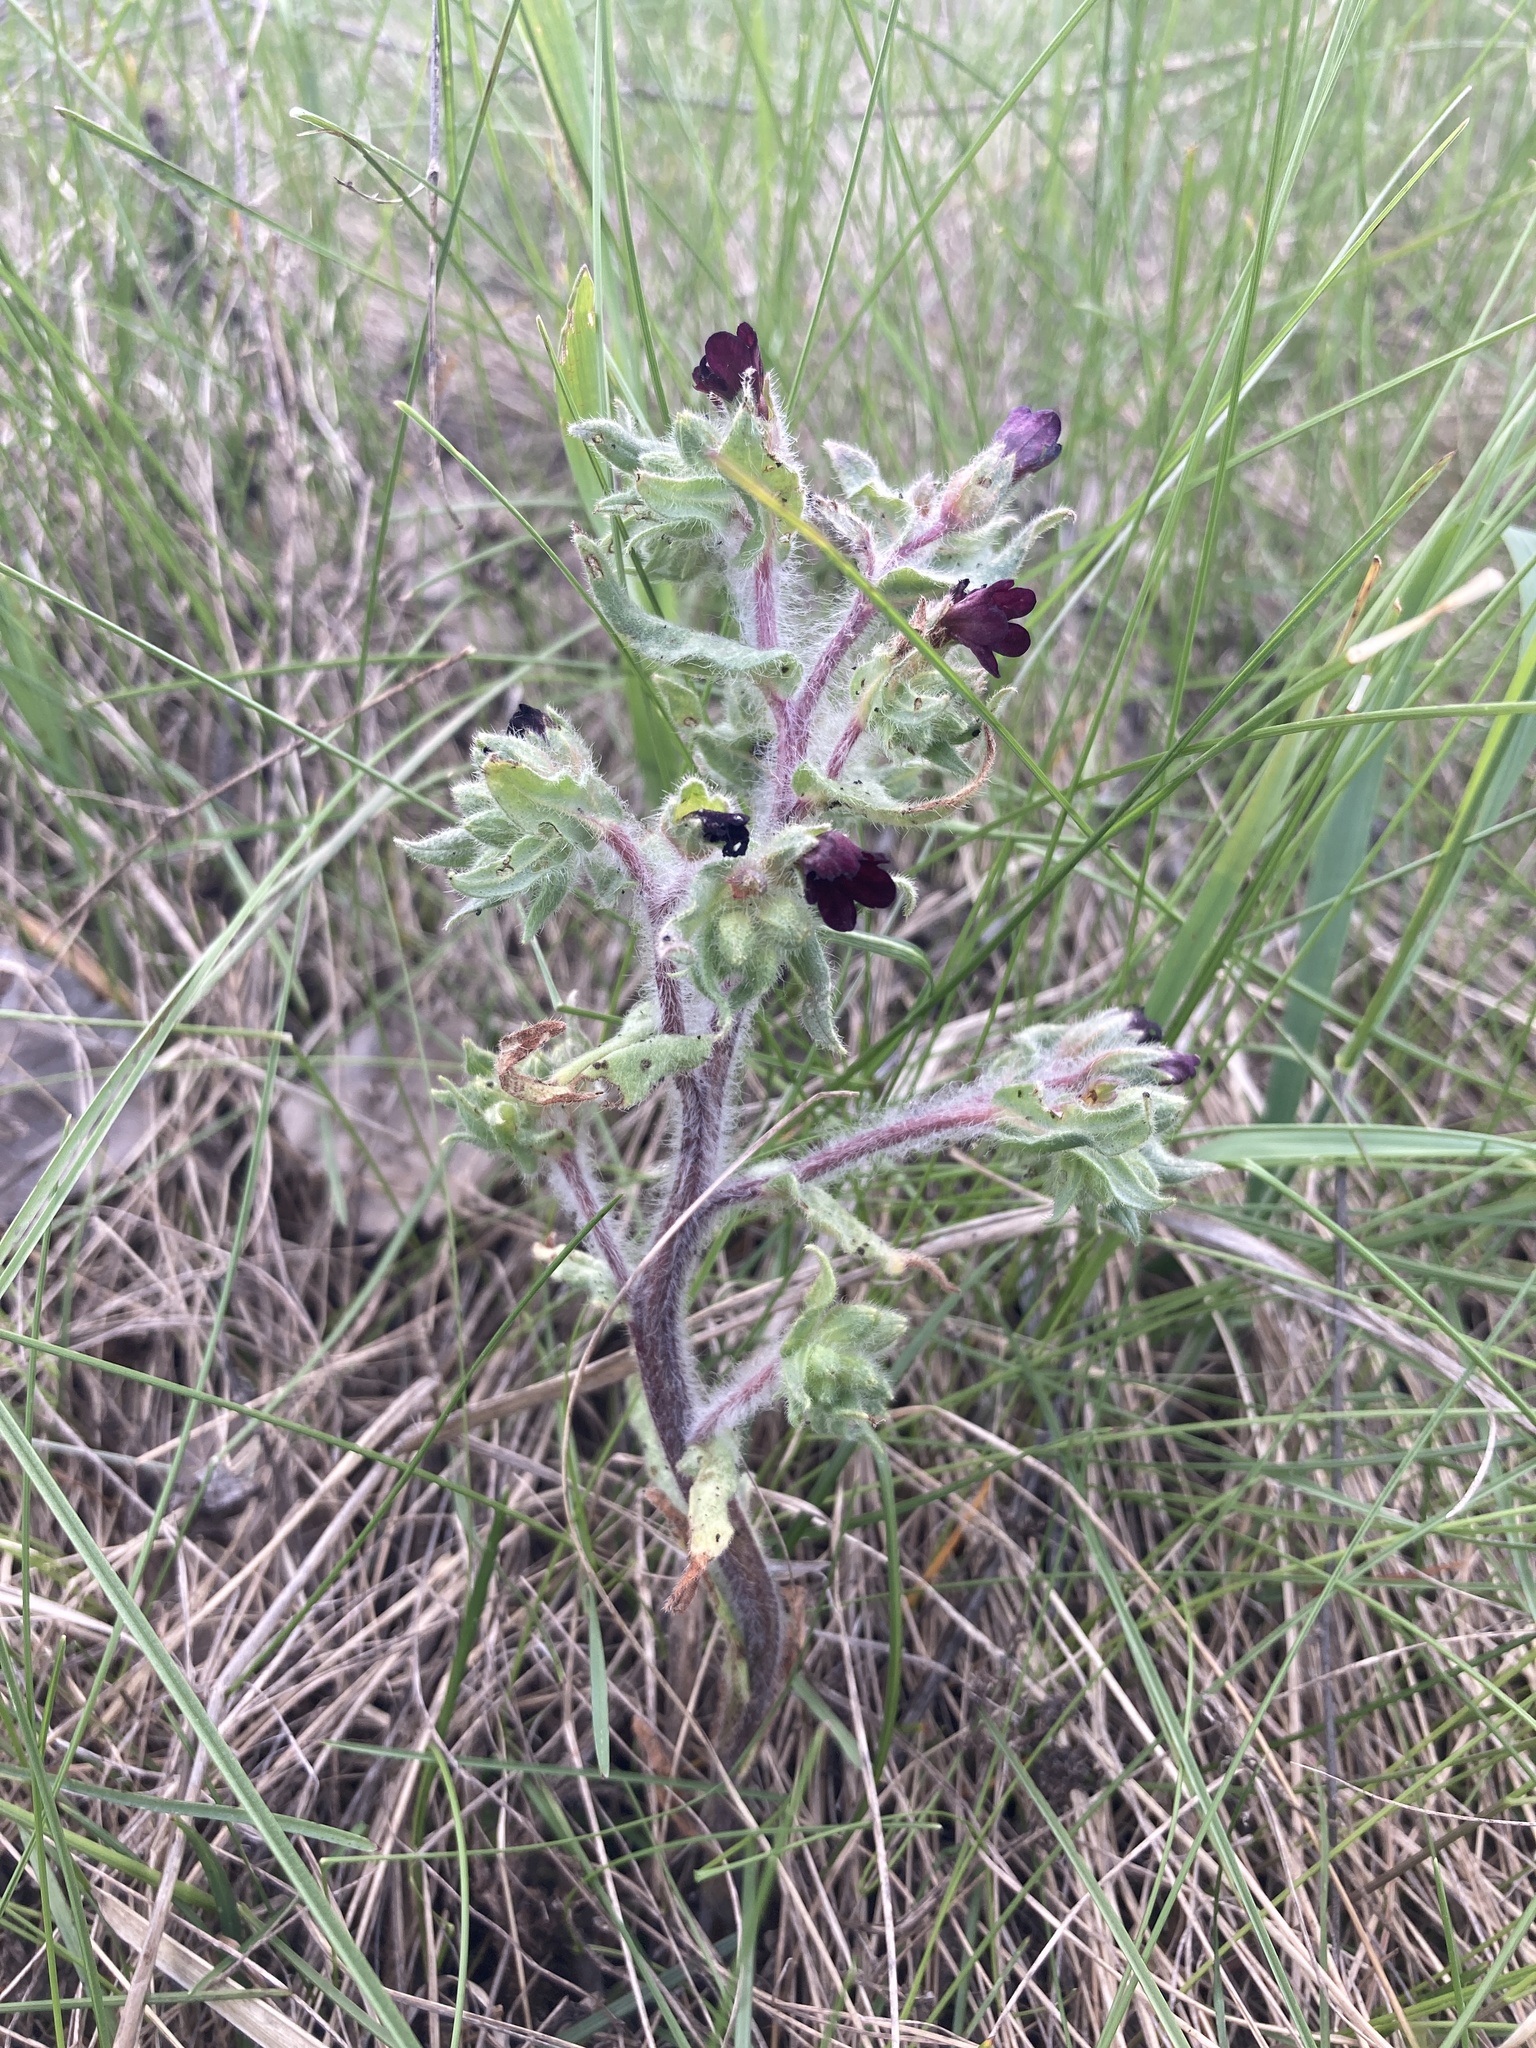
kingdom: Plantae
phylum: Tracheophyta
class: Magnoliopsida
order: Boraginales
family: Boraginaceae
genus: Nonea
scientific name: Nonea pulla
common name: Brown nonea
